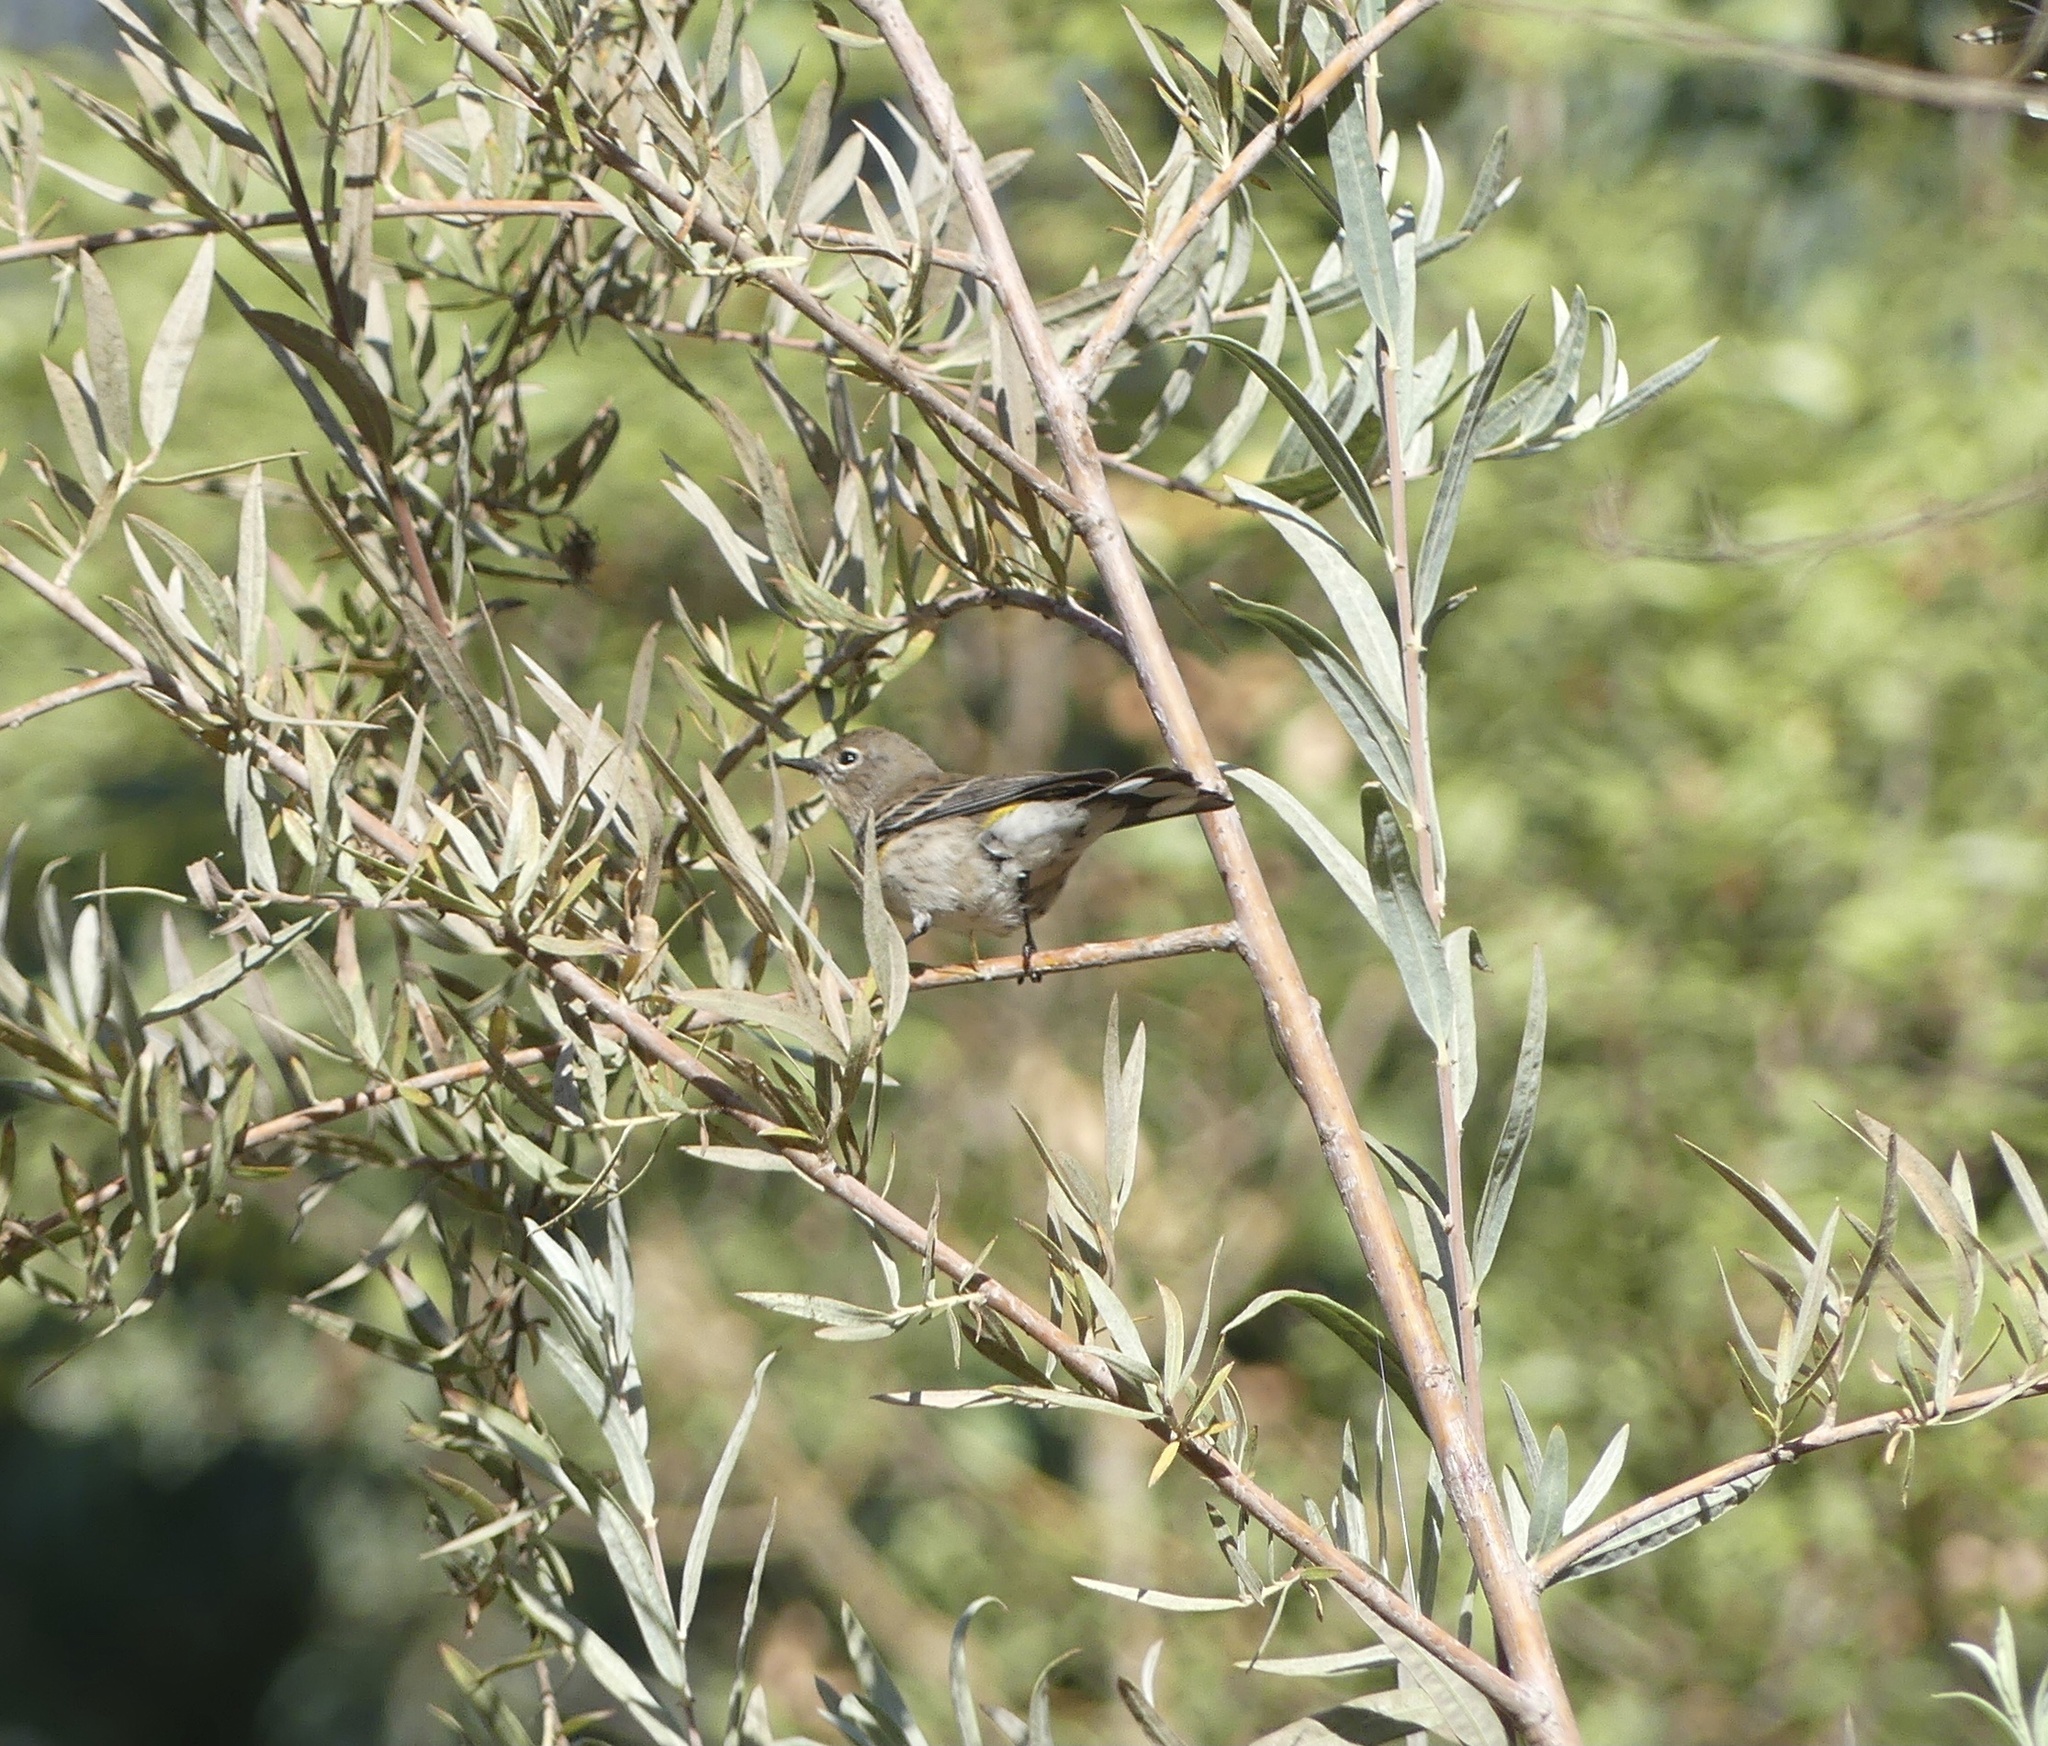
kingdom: Animalia
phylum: Chordata
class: Aves
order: Passeriformes
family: Parulidae
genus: Setophaga
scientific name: Setophaga coronata
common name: Myrtle warbler
